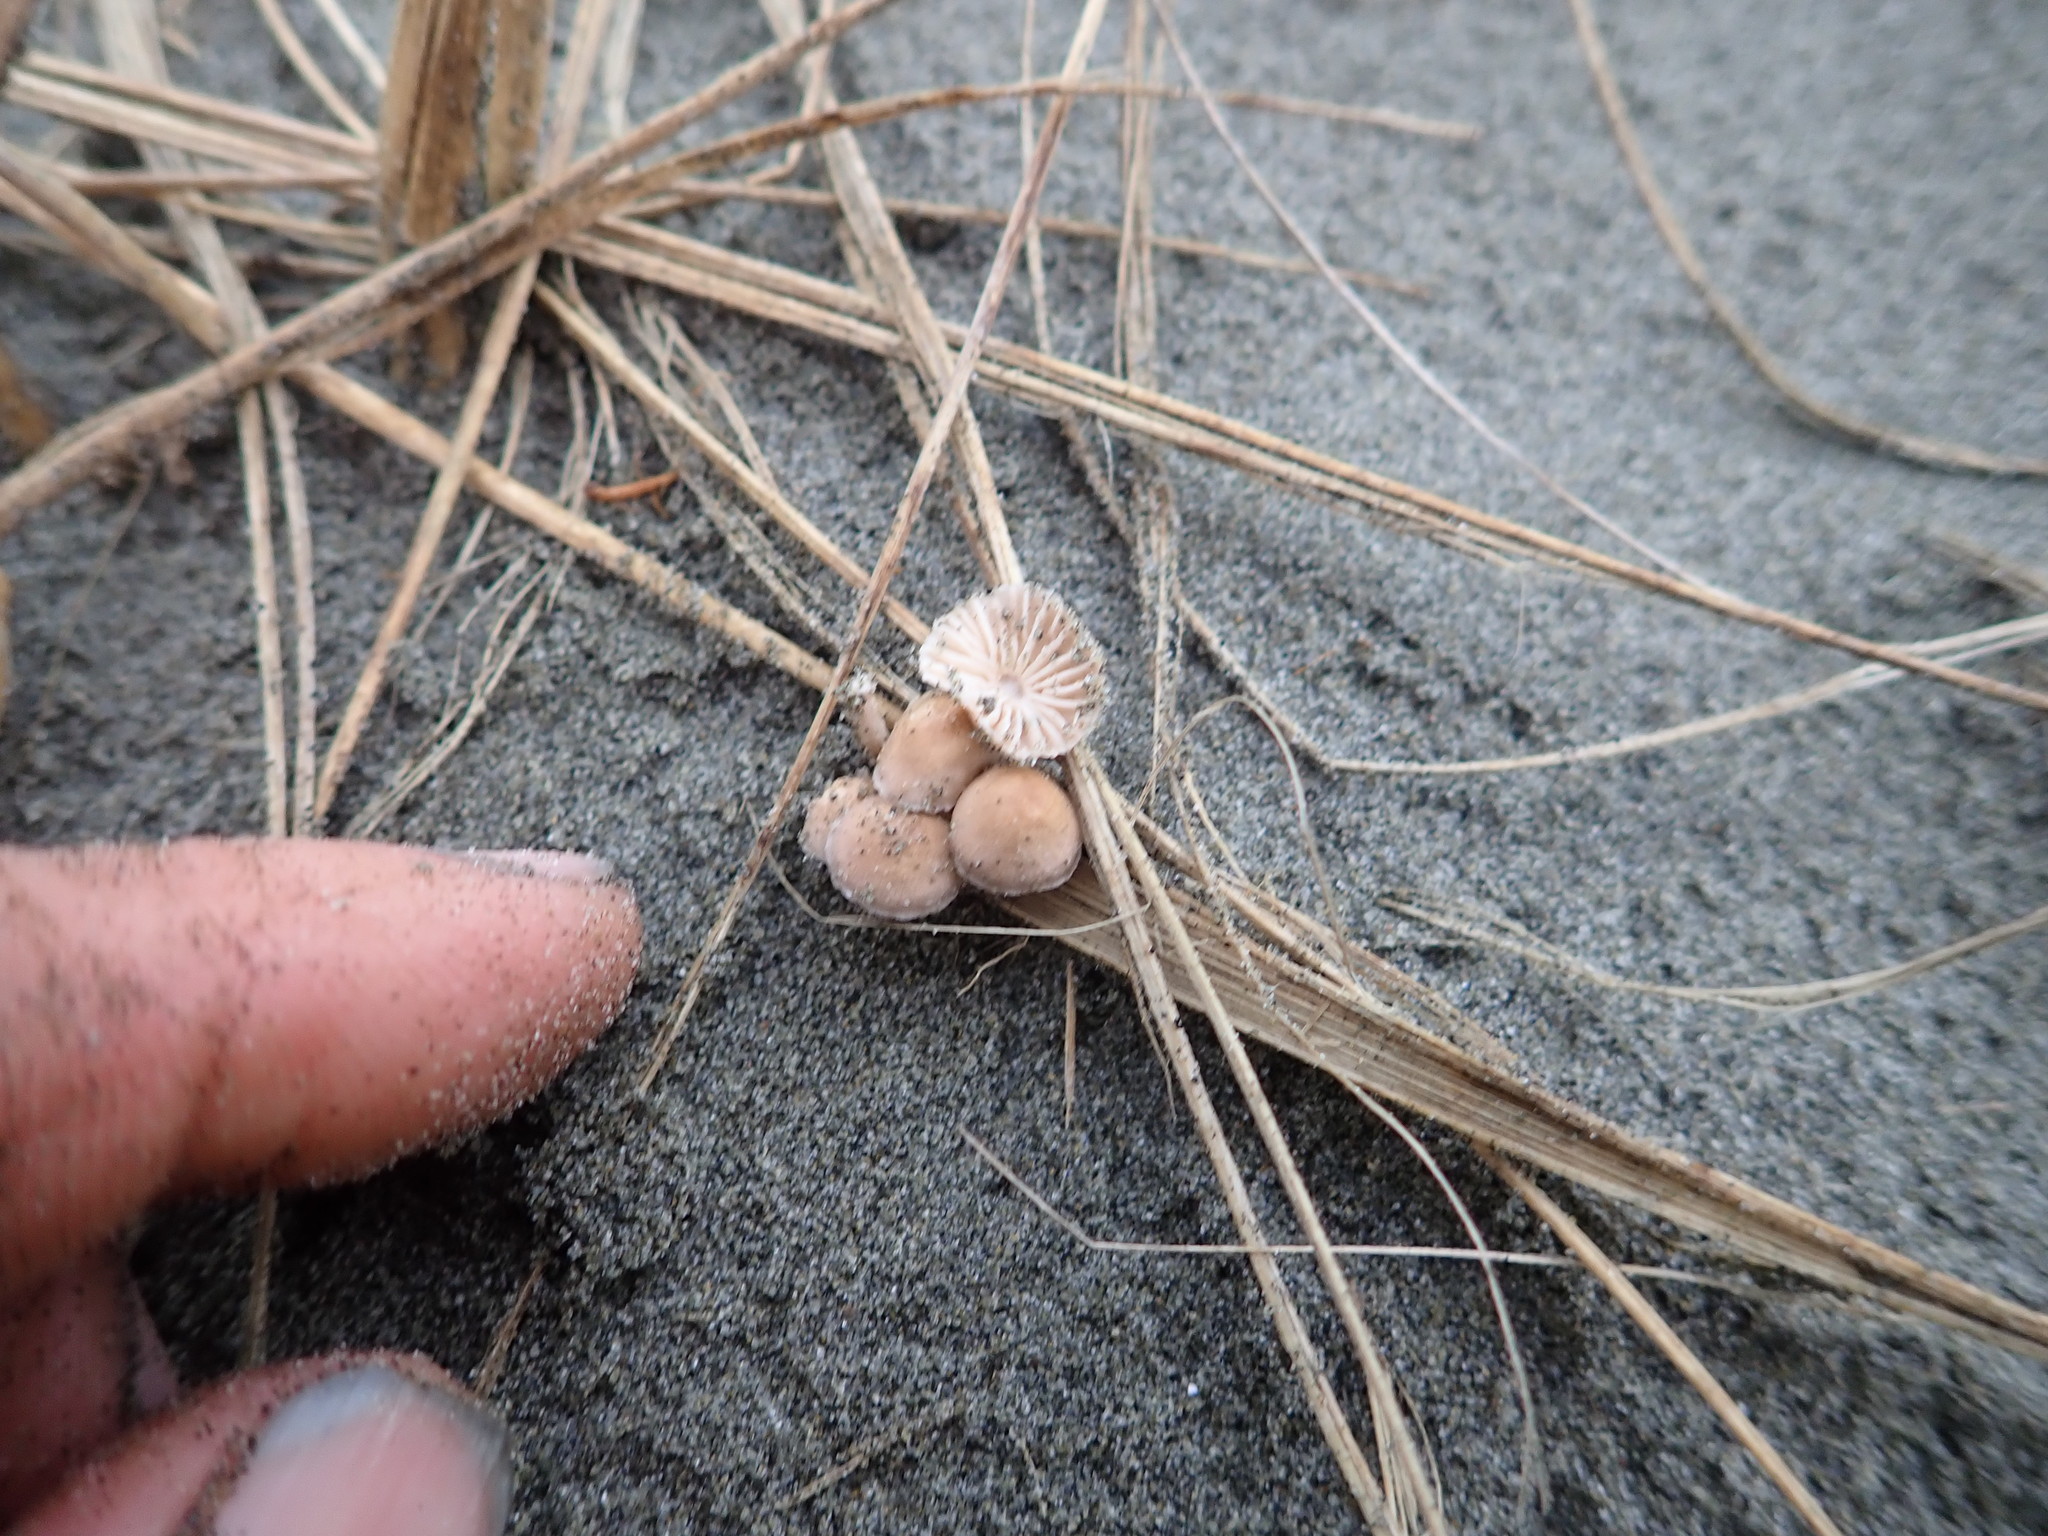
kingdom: Fungi
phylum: Basidiomycota
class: Agaricomycetes
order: Agaricales
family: Marasmiaceae
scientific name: Marasmiaceae
